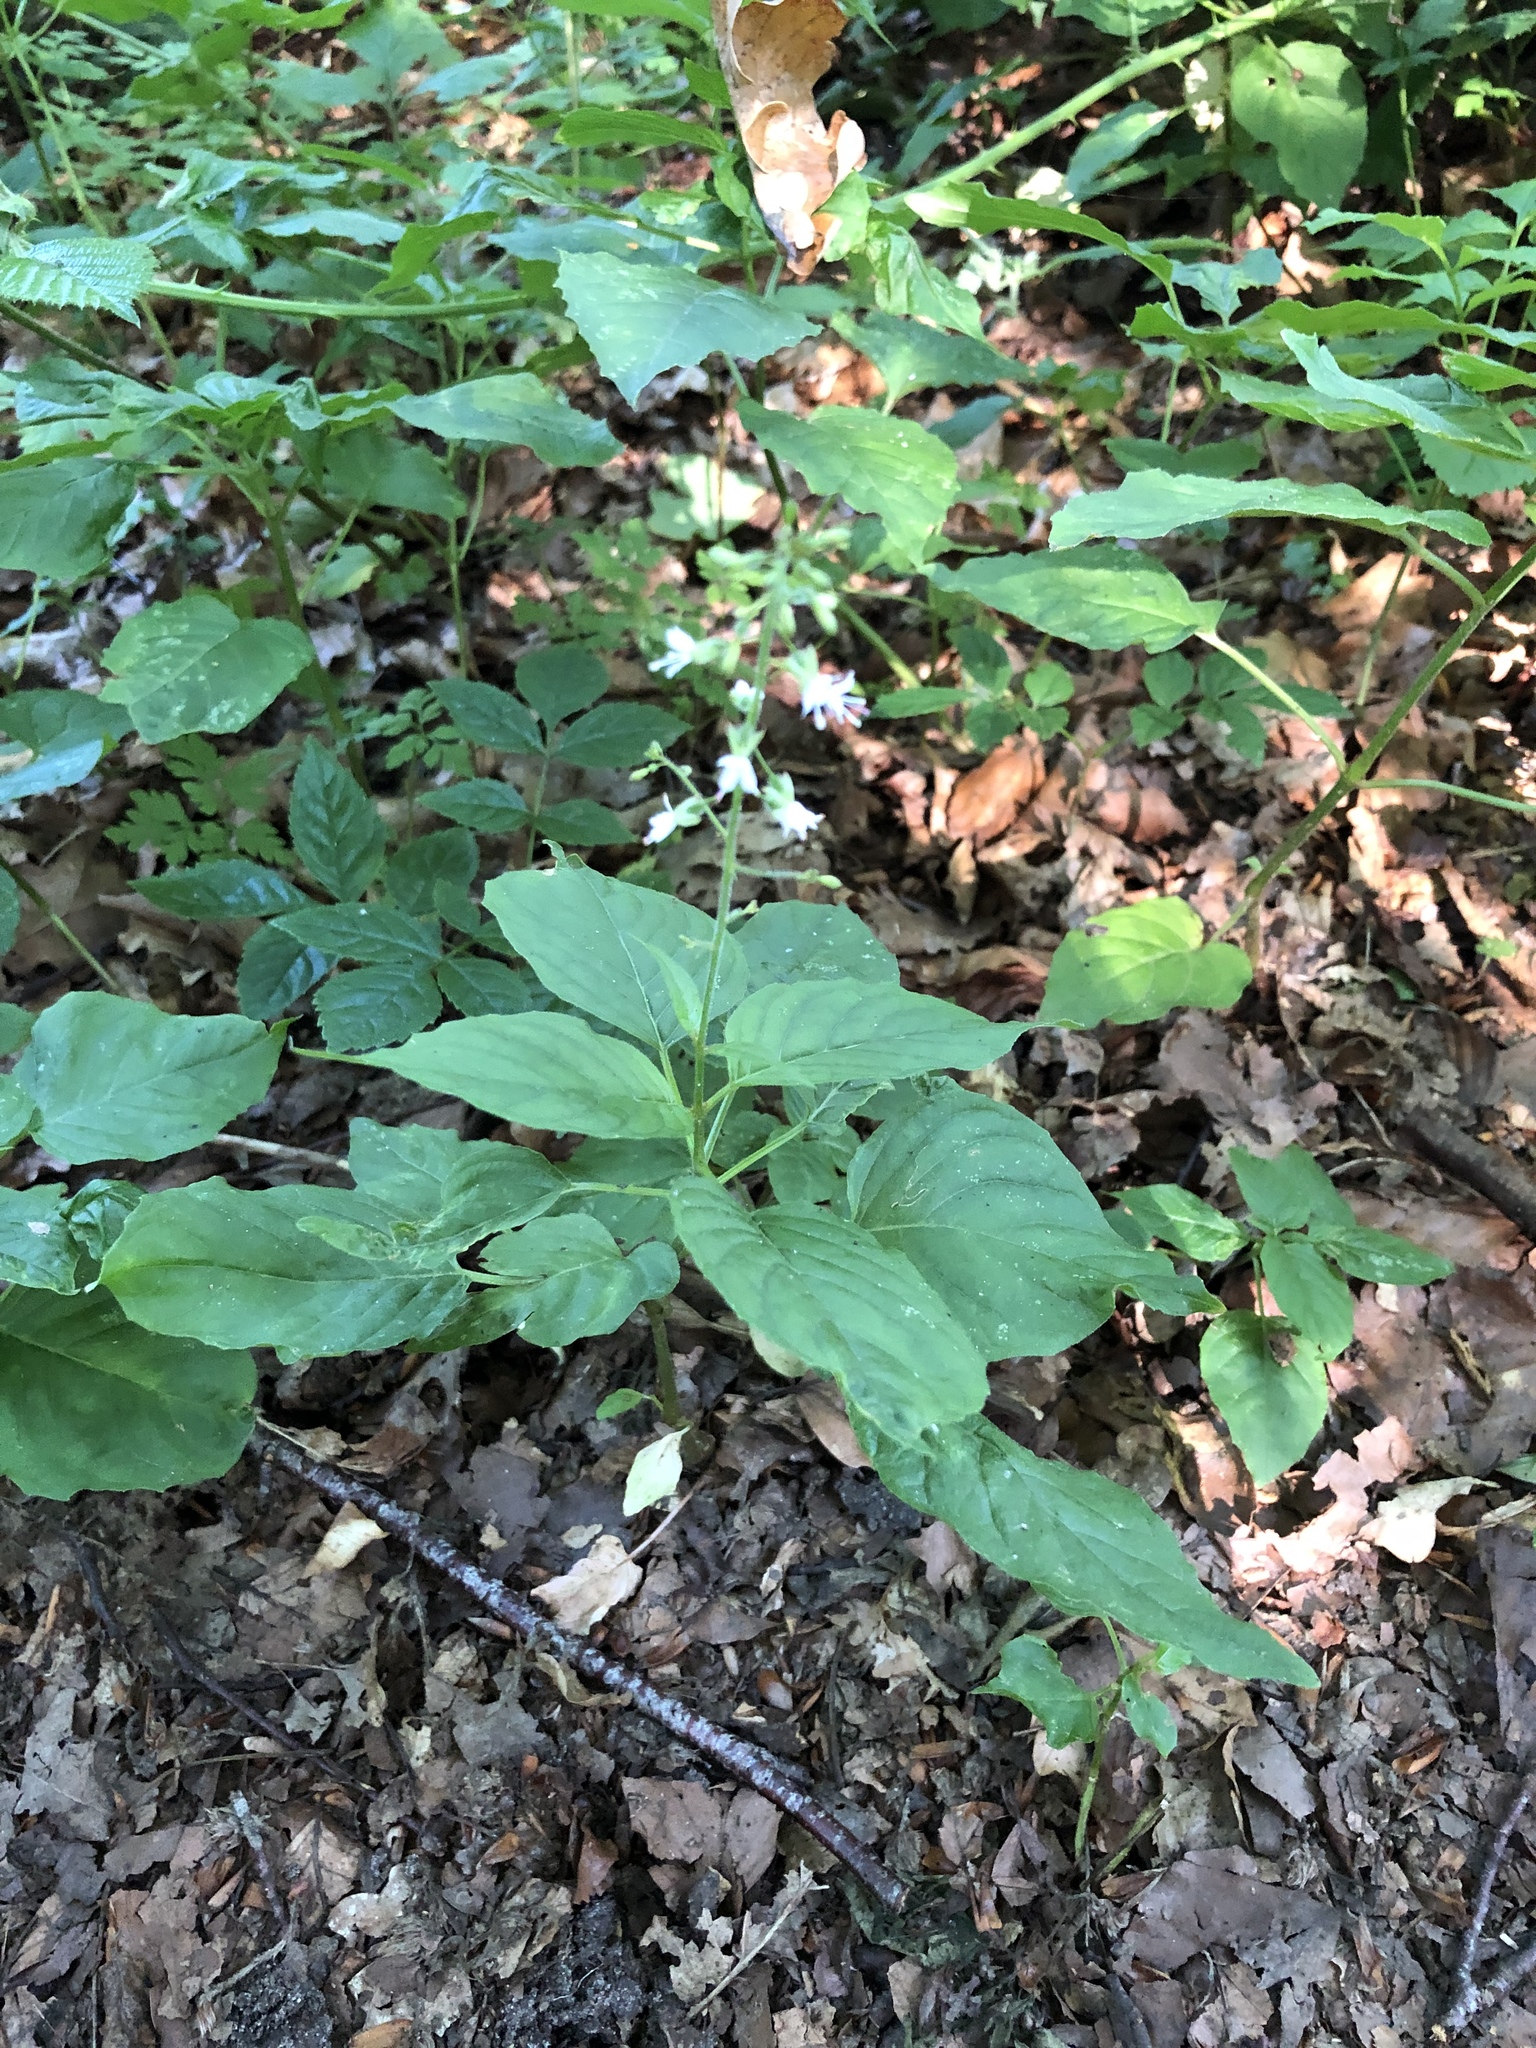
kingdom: Plantae
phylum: Tracheophyta
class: Magnoliopsida
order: Myrtales
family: Onagraceae
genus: Circaea
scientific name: Circaea lutetiana
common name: Enchanter's-nightshade
